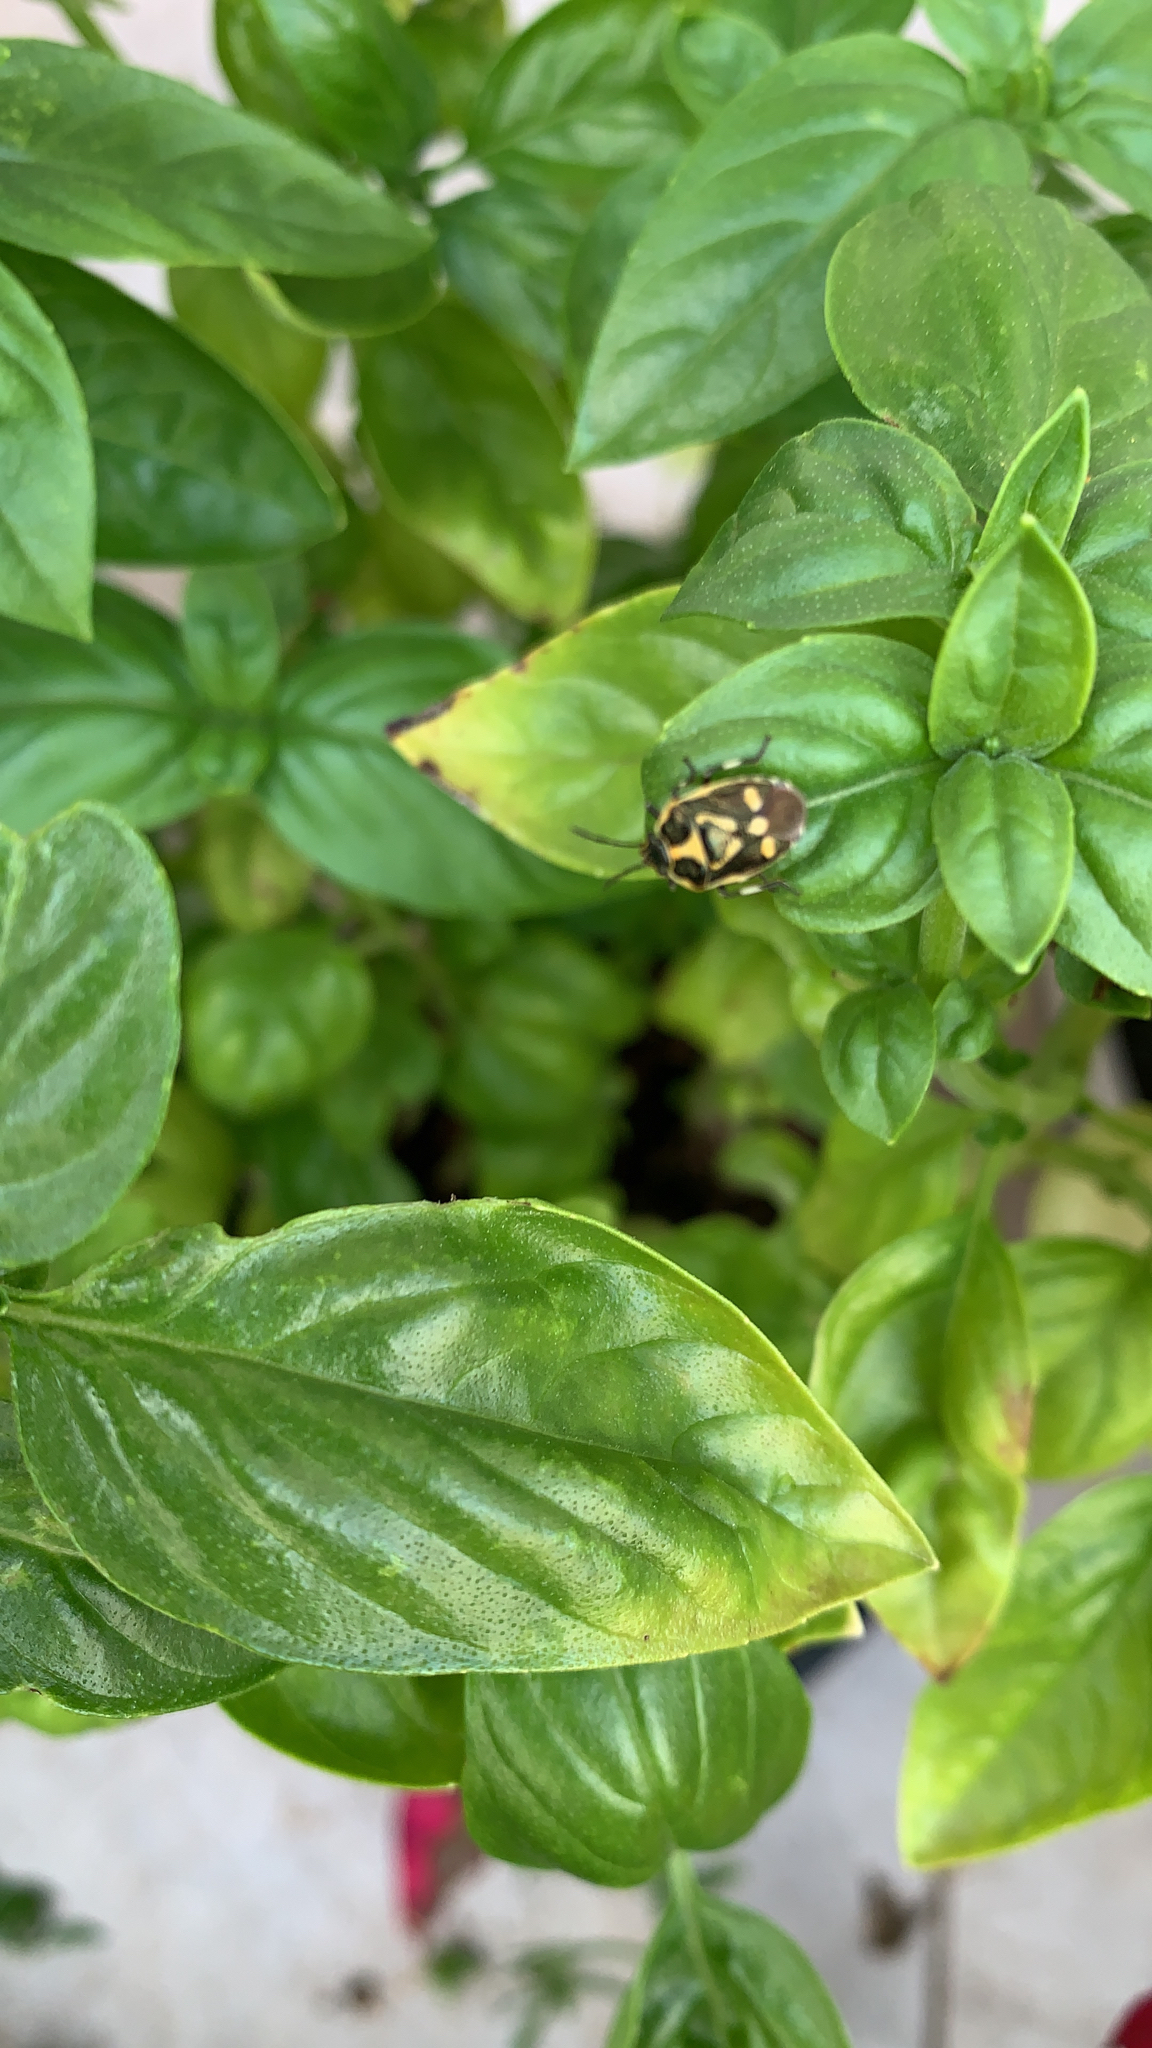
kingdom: Animalia
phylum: Arthropoda
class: Insecta
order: Hemiptera
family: Pentatomidae
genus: Eurydema
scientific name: Eurydema oleracea
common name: Cabbage bug
